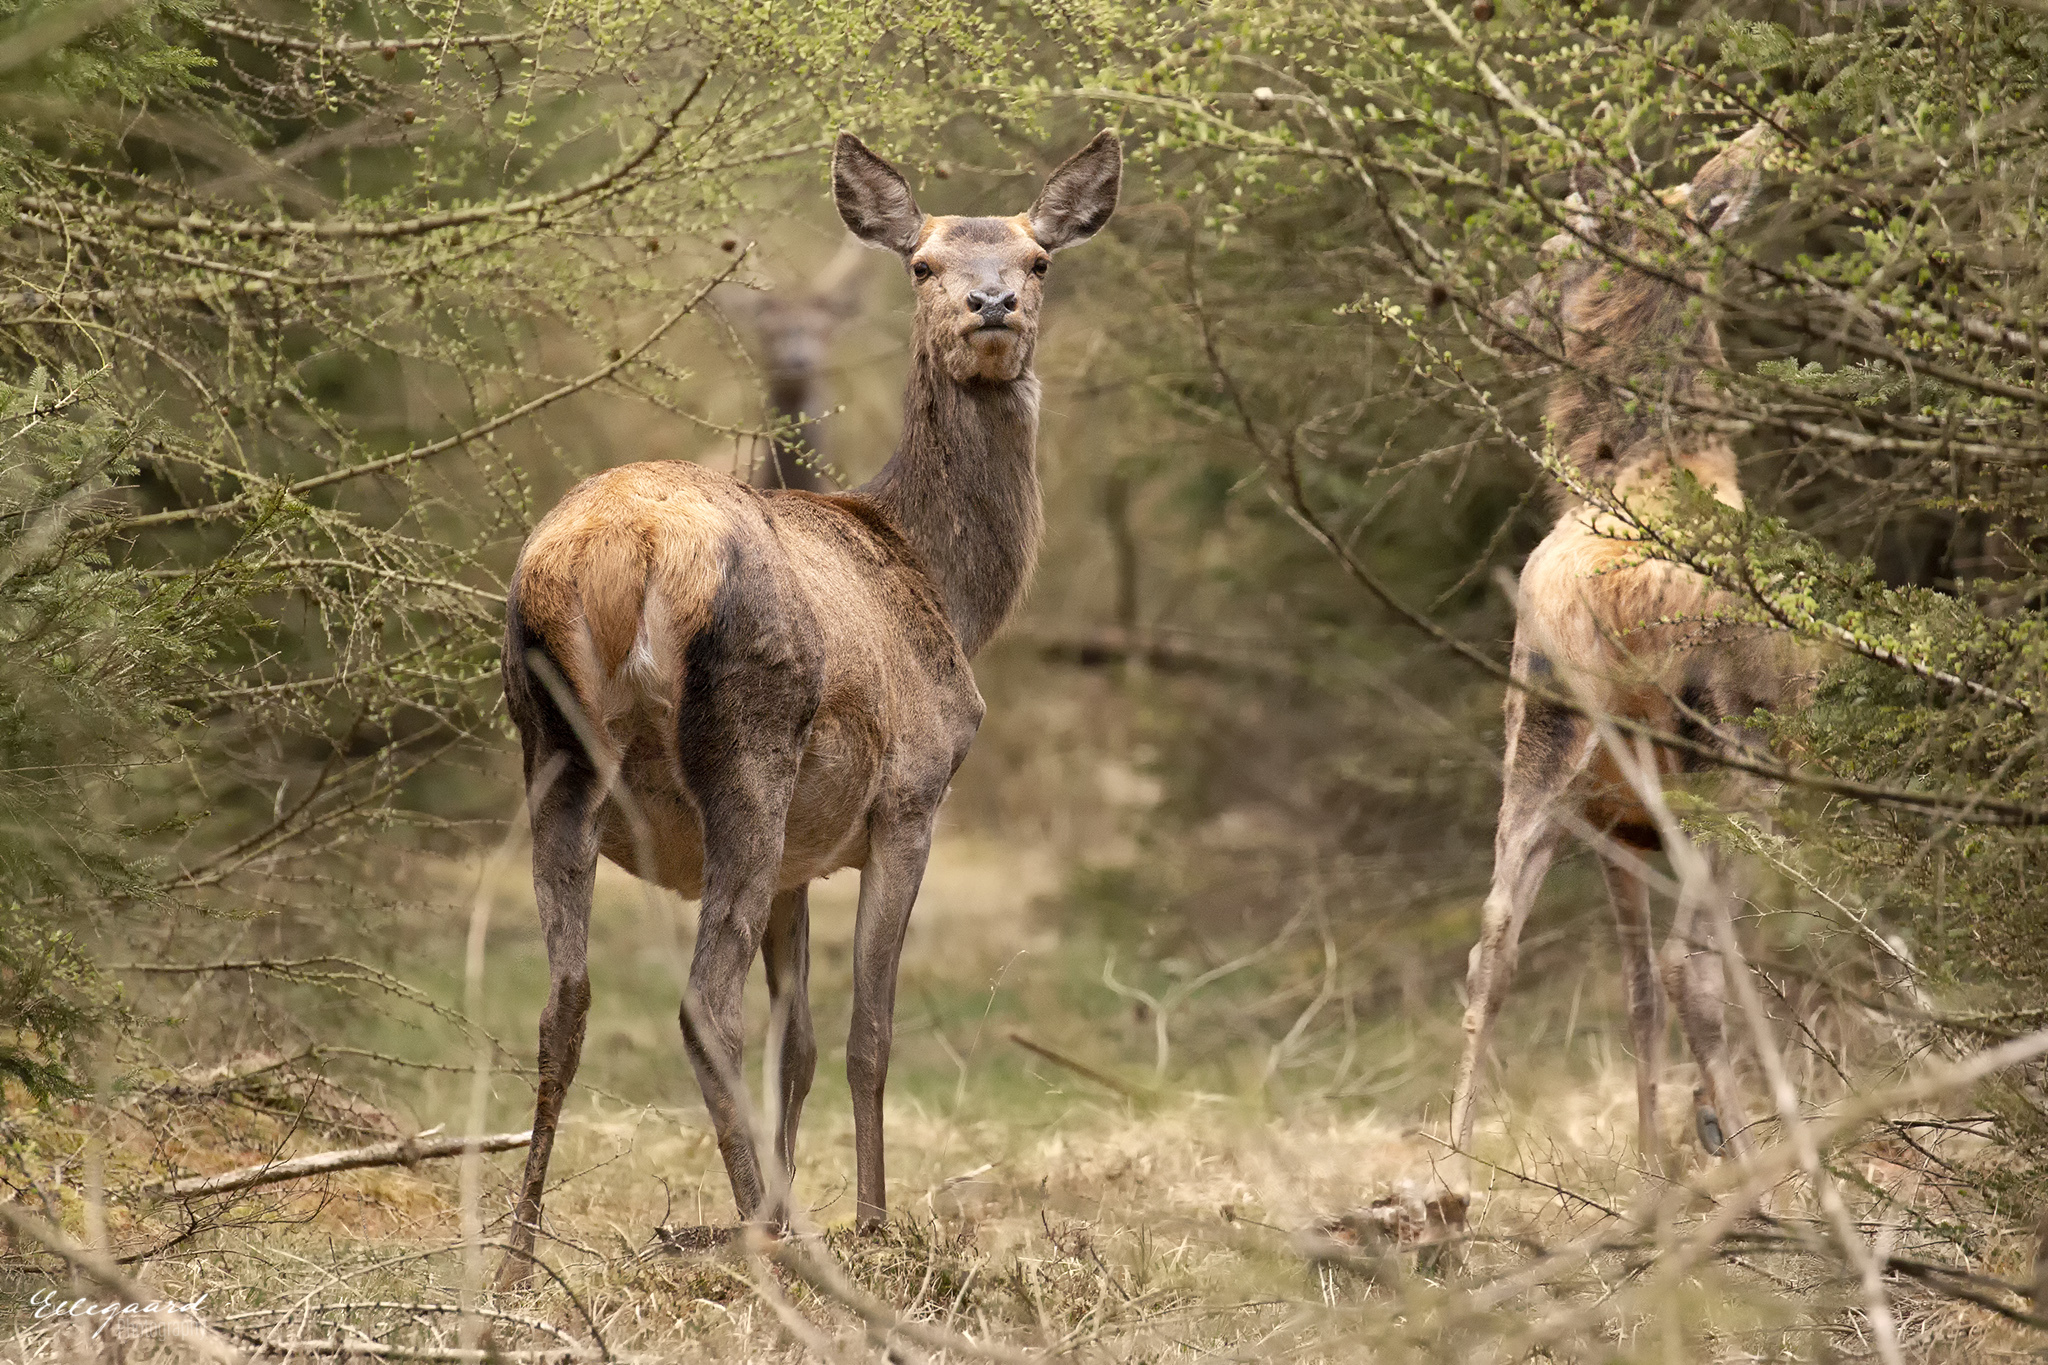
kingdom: Animalia
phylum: Chordata
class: Mammalia
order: Artiodactyla
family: Cervidae
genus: Cervus
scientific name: Cervus elaphus
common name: Red deer
